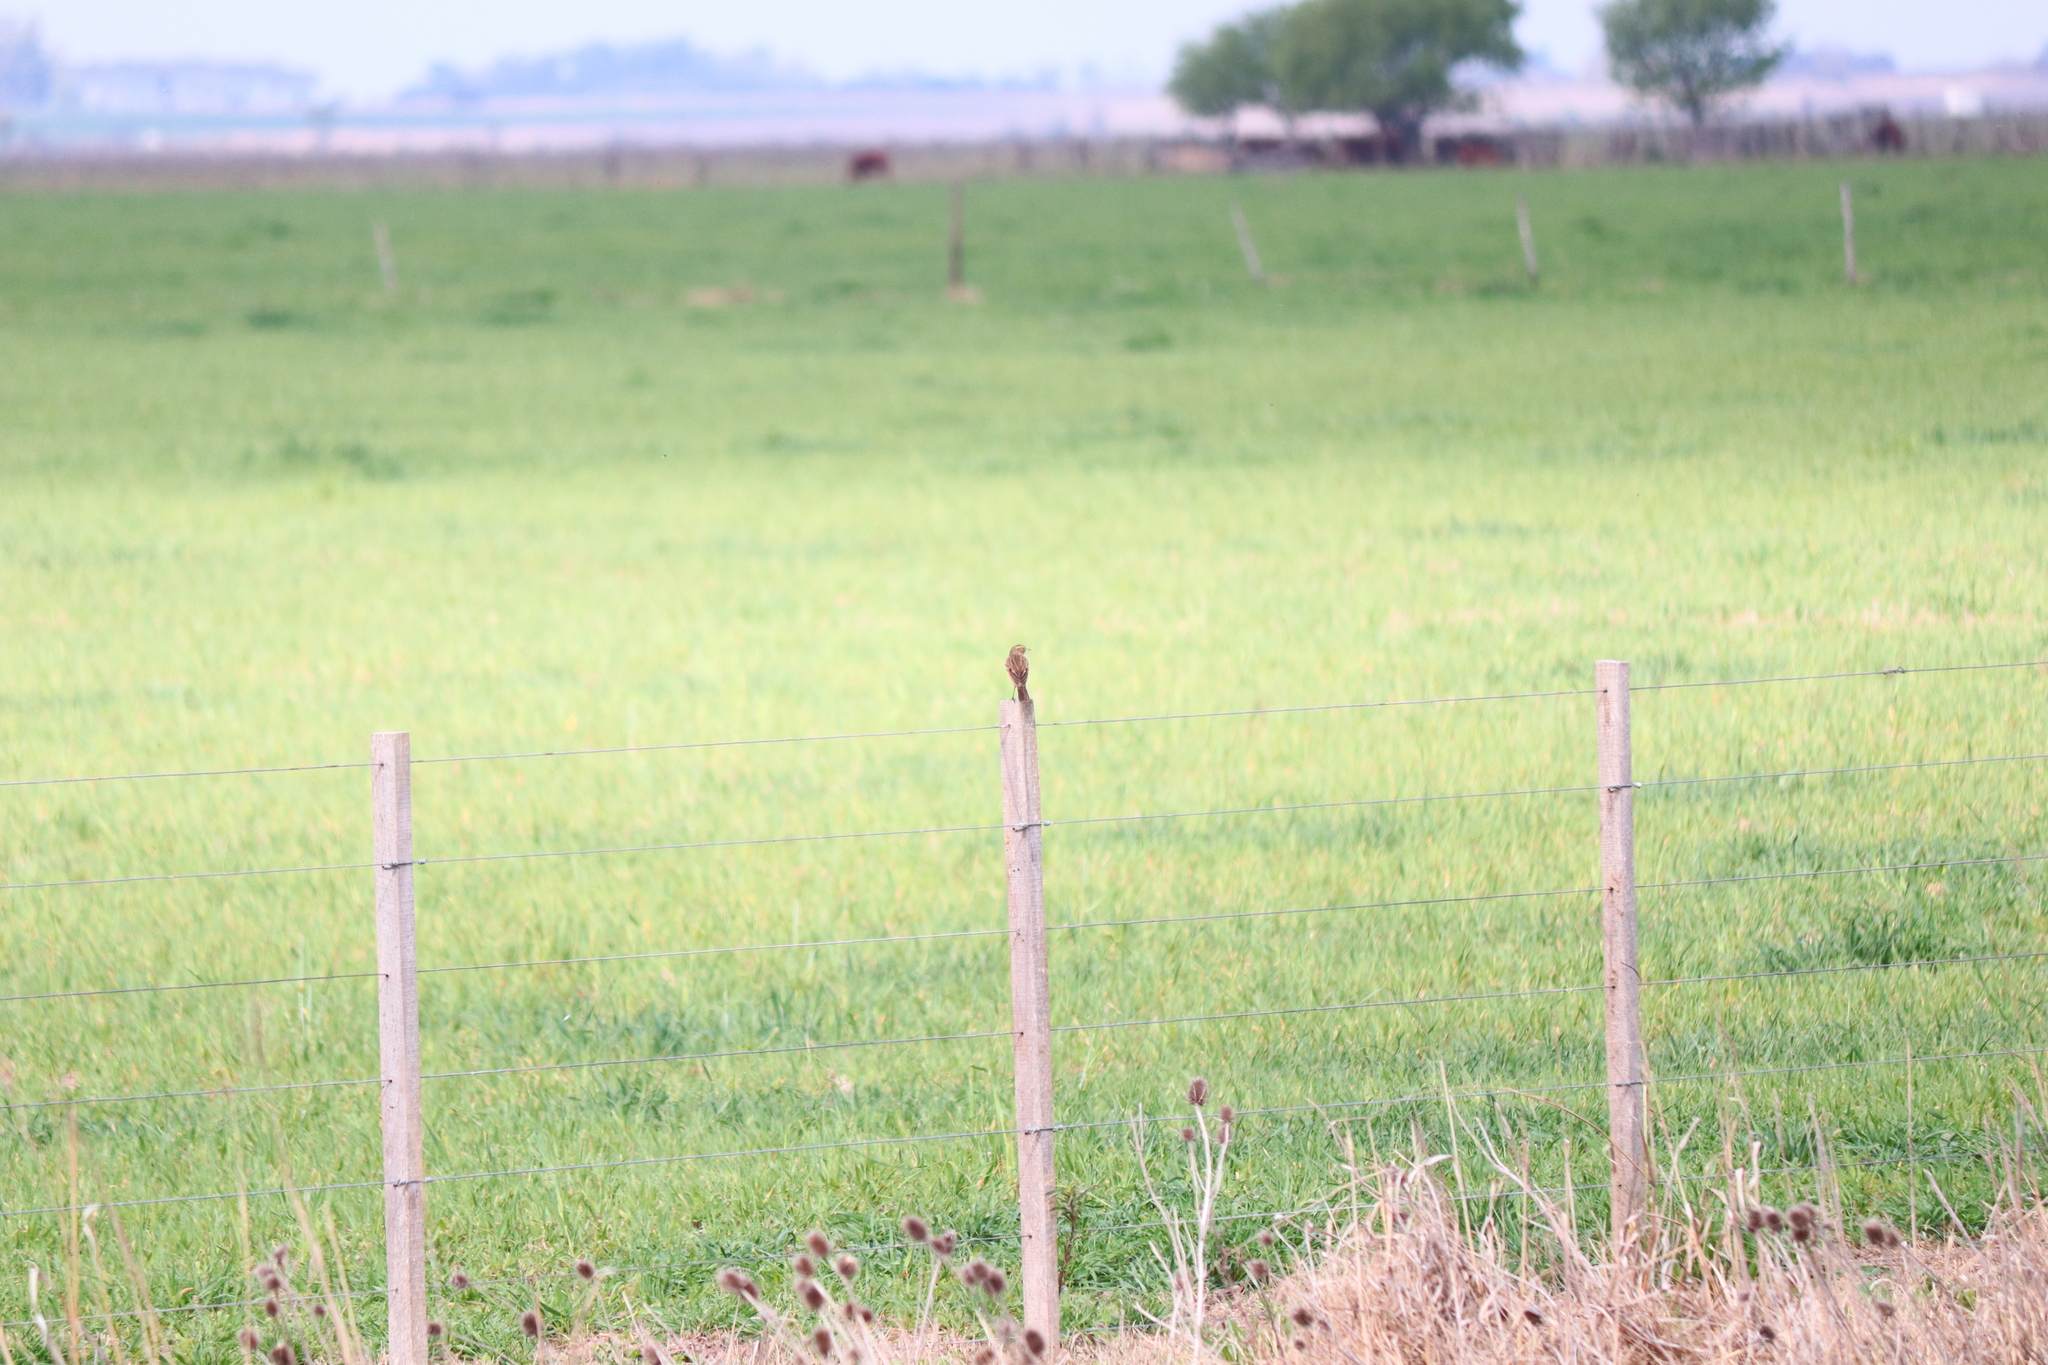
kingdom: Animalia
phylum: Chordata
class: Aves
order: Passeriformes
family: Tyrannidae
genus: Hymenops
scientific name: Hymenops perspicillatus
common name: Spectacled tyrant
